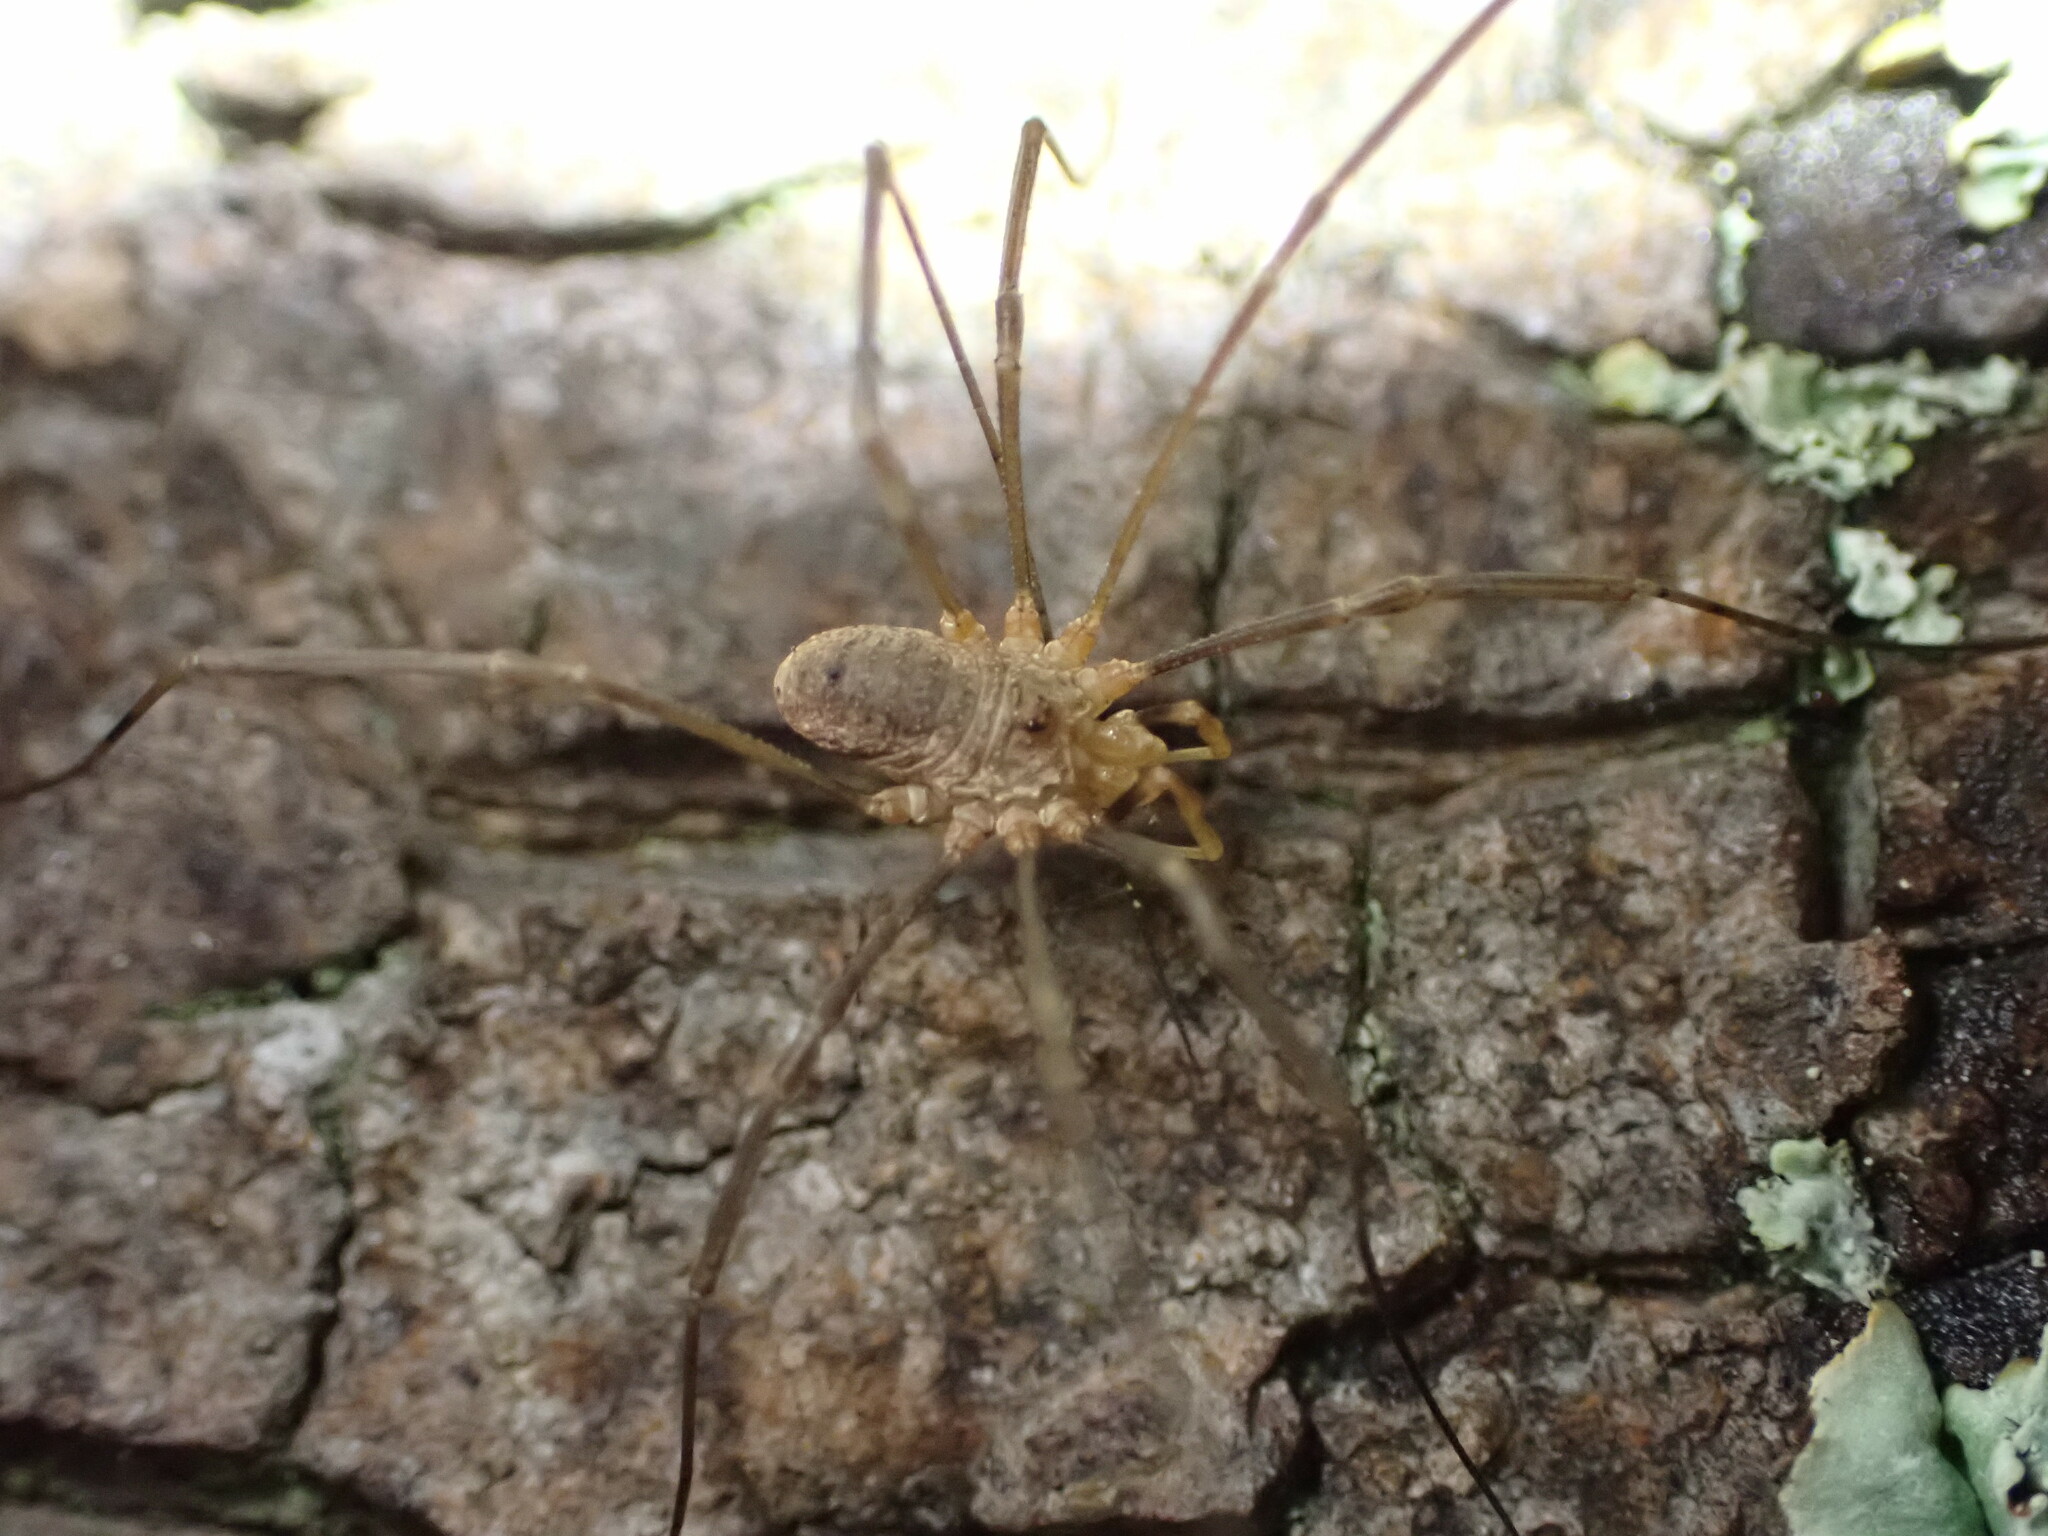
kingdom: Animalia
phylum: Arthropoda
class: Arachnida
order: Opiliones
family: Phalangiidae
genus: Phalangium
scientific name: Phalangium opilio
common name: Daddy longleg
